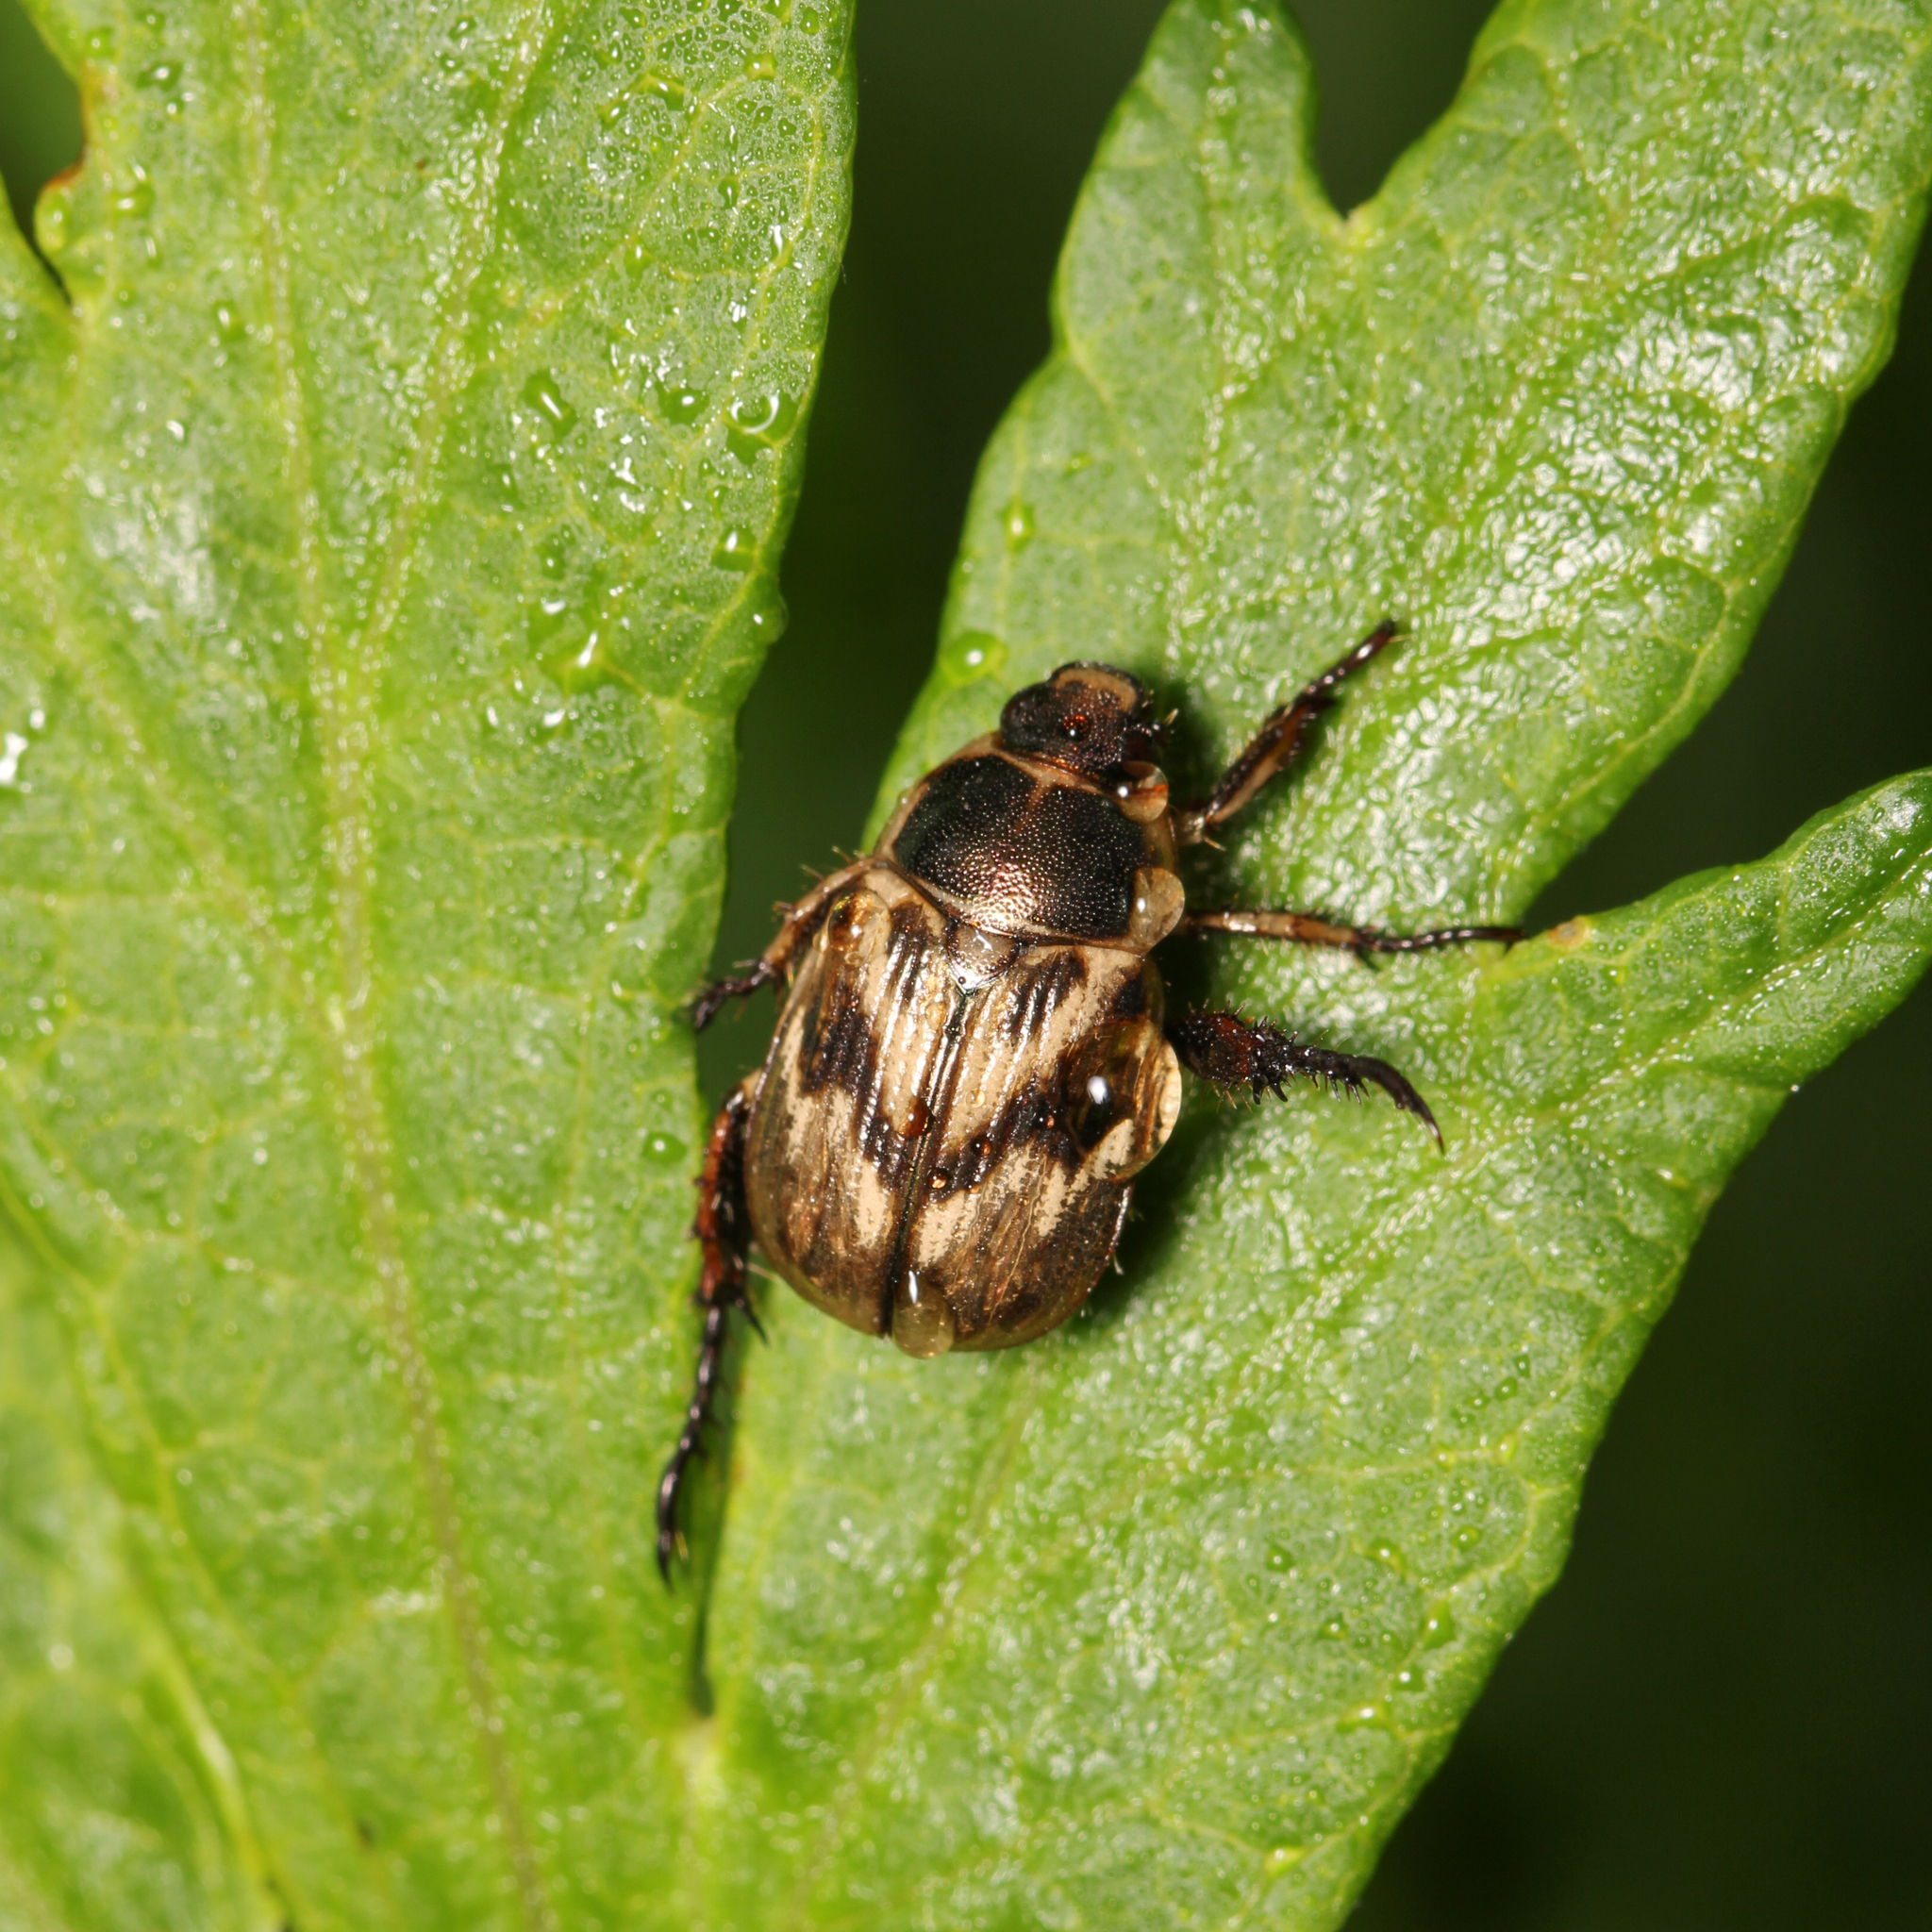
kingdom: Animalia
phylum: Arthropoda
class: Insecta
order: Coleoptera
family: Scarabaeidae
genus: Exomala
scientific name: Exomala orientalis
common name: Oriental beetle
